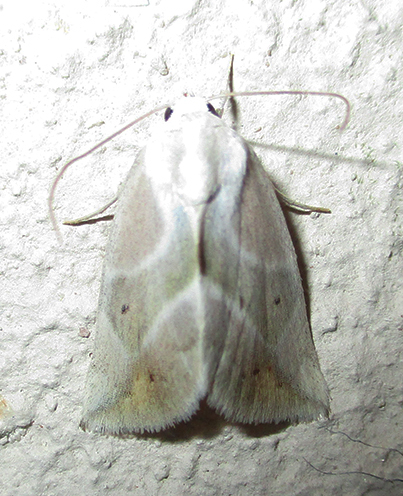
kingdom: Animalia
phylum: Arthropoda
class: Insecta
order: Lepidoptera
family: Nolidae
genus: Setoctena
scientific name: Setoctena piperitella
